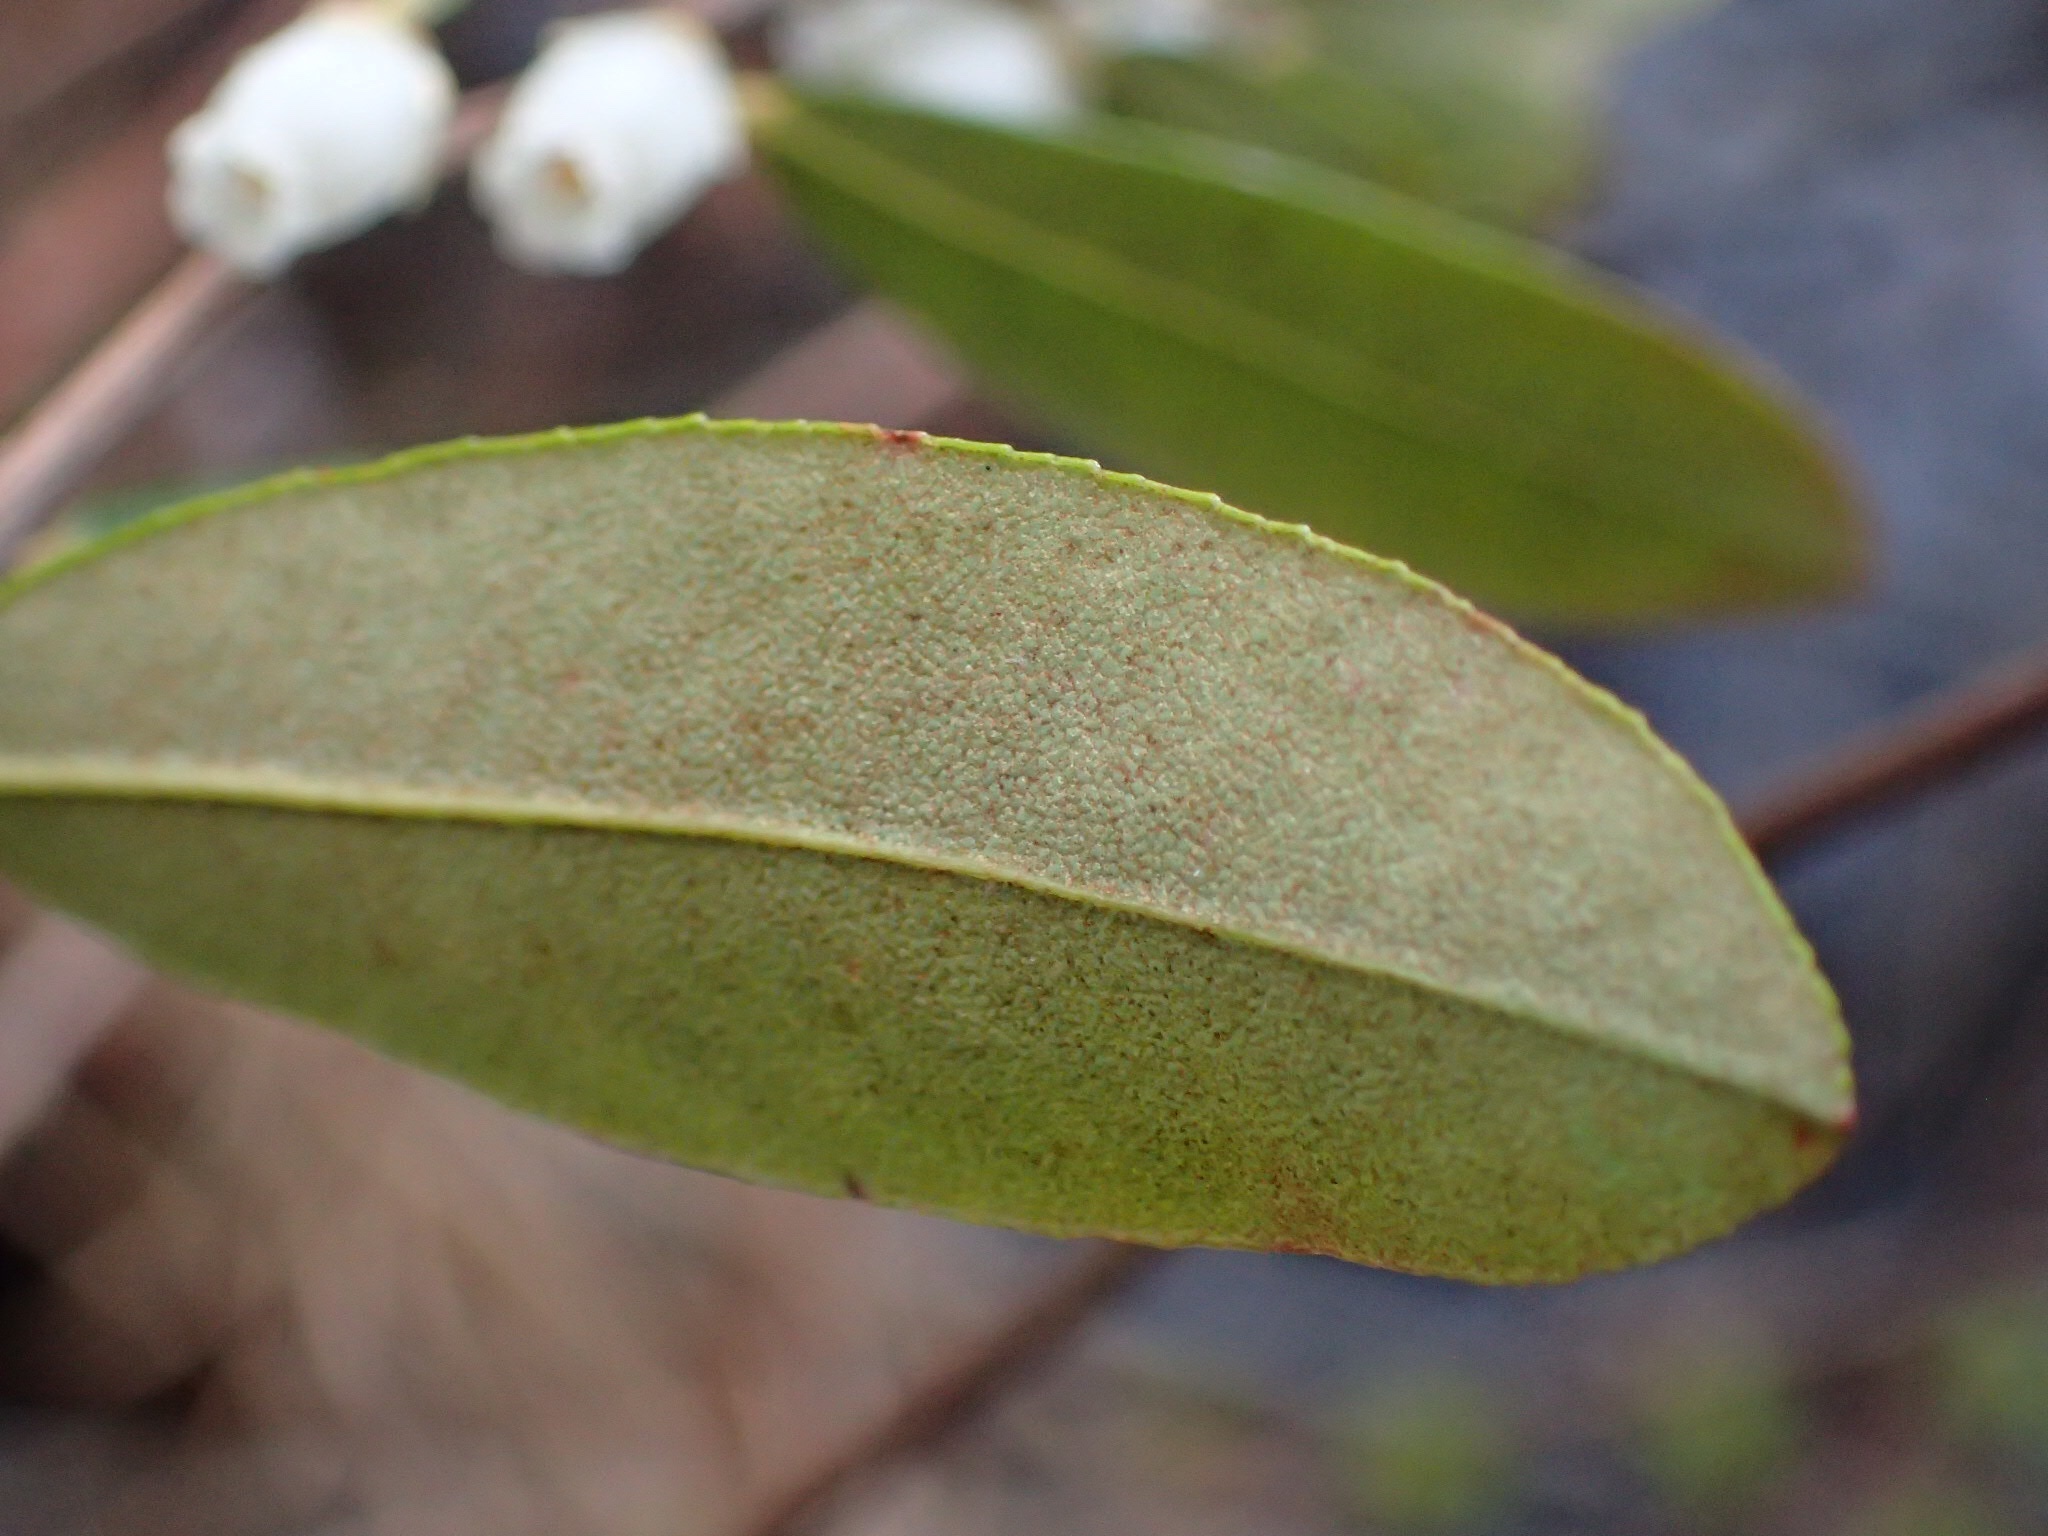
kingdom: Plantae
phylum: Tracheophyta
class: Magnoliopsida
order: Ericales
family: Ericaceae
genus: Chamaedaphne
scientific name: Chamaedaphne calyculata
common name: Leatherleaf
